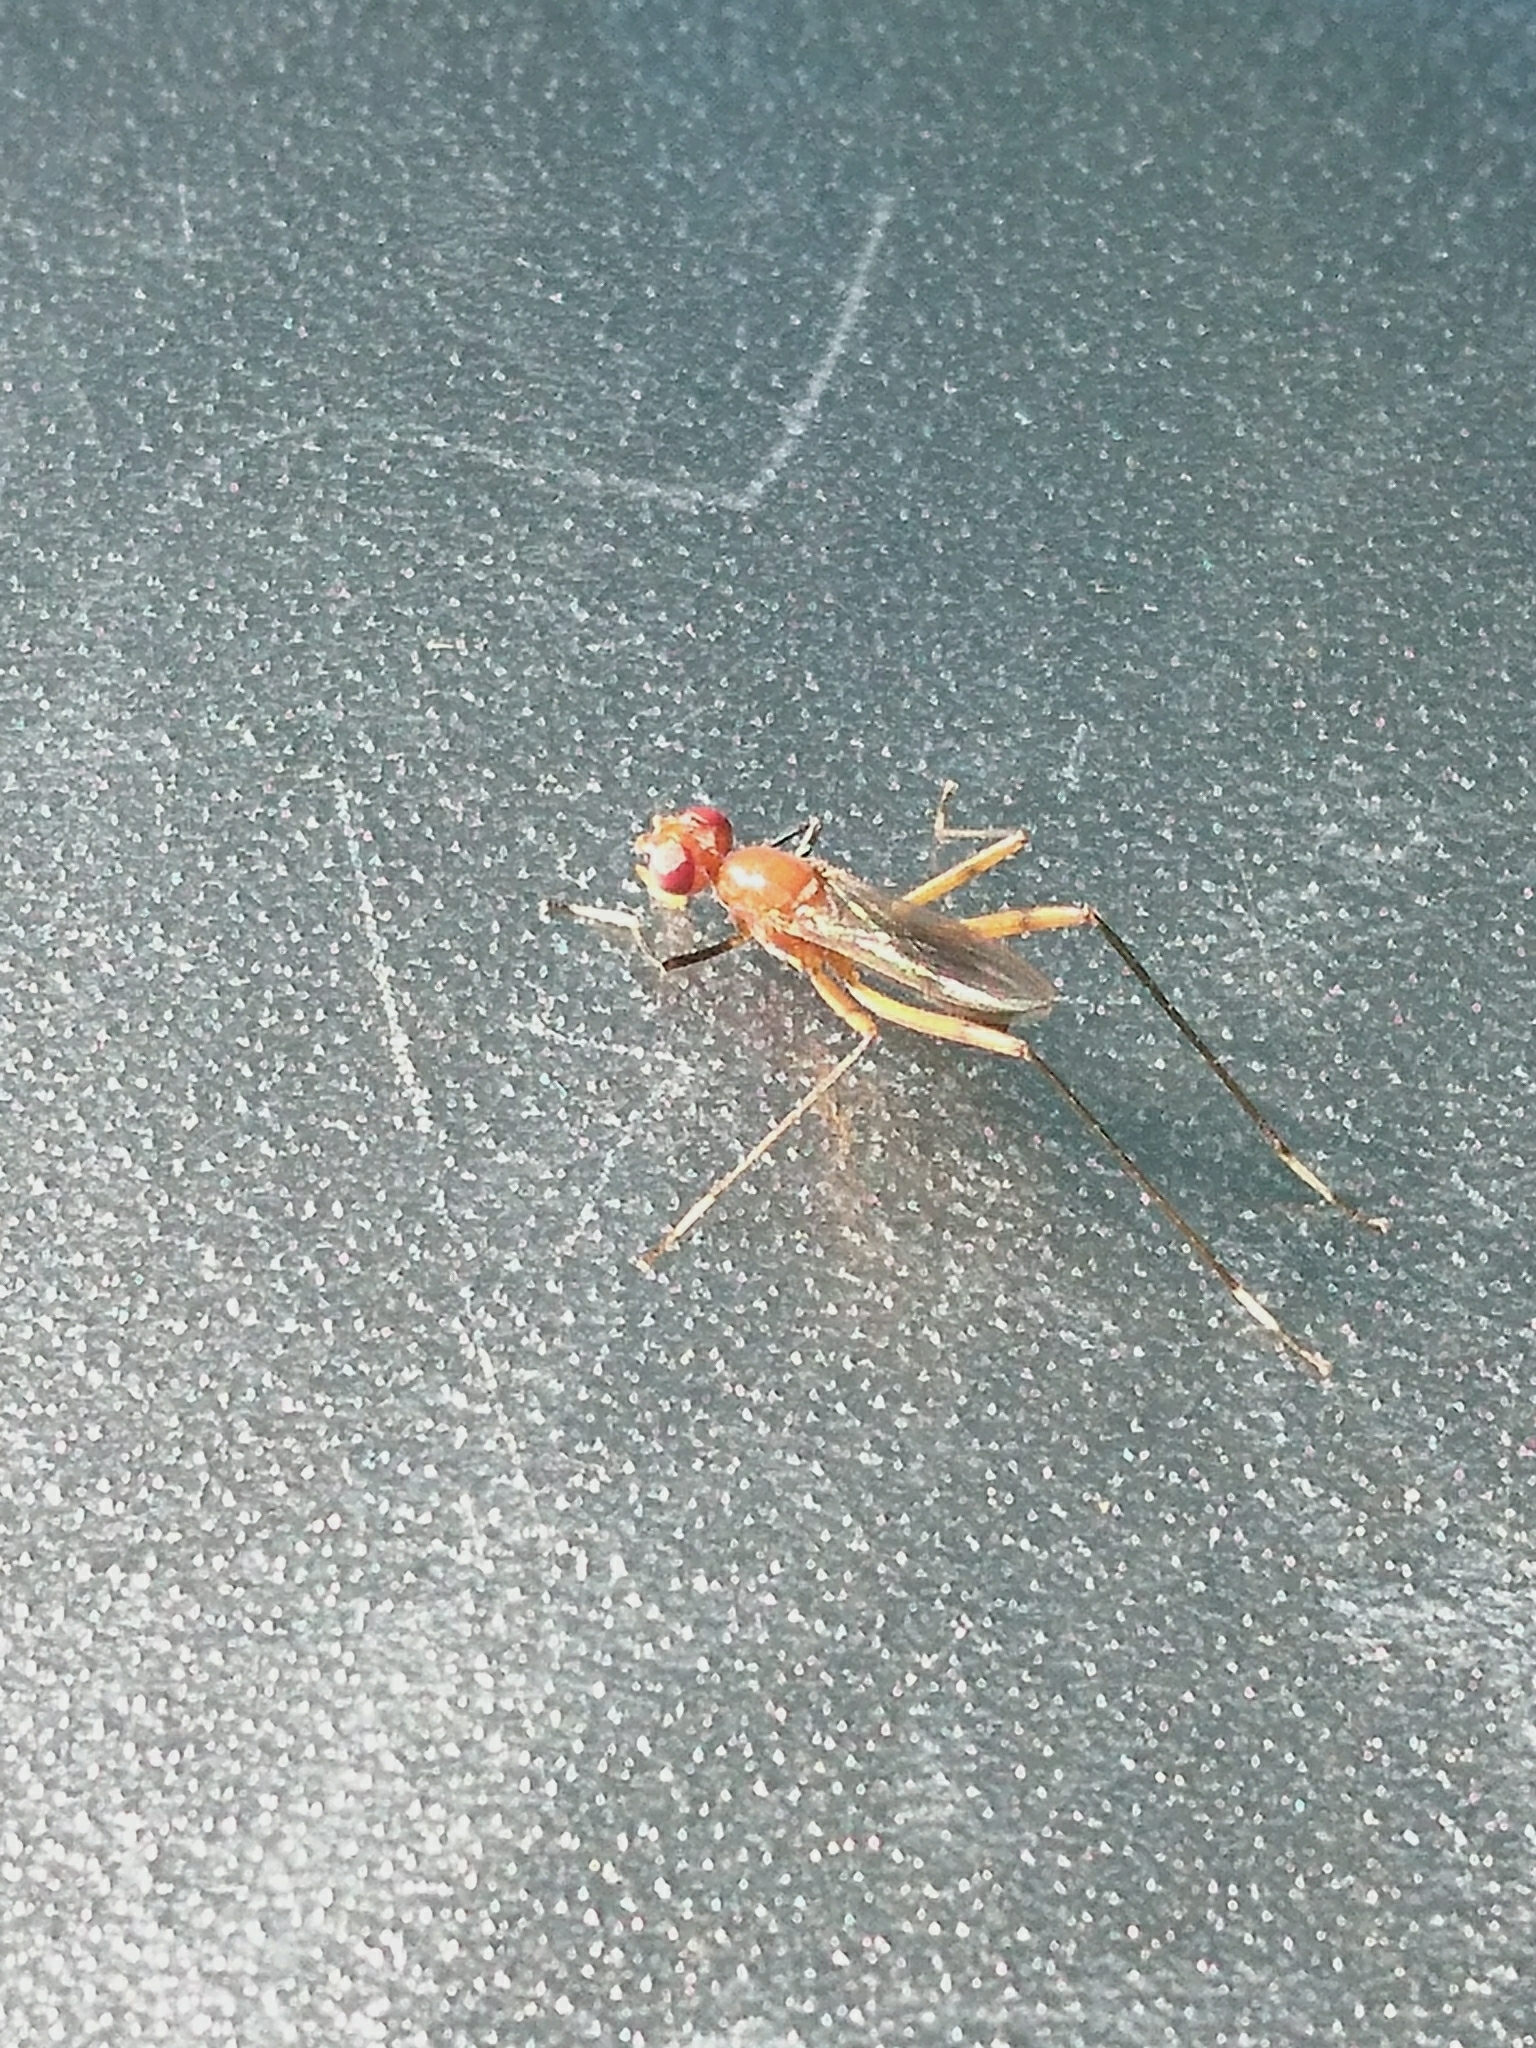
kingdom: Animalia
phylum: Arthropoda
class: Insecta
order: Diptera
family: Micropezidae
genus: Grallipeza
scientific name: Grallipeza nebulosa
